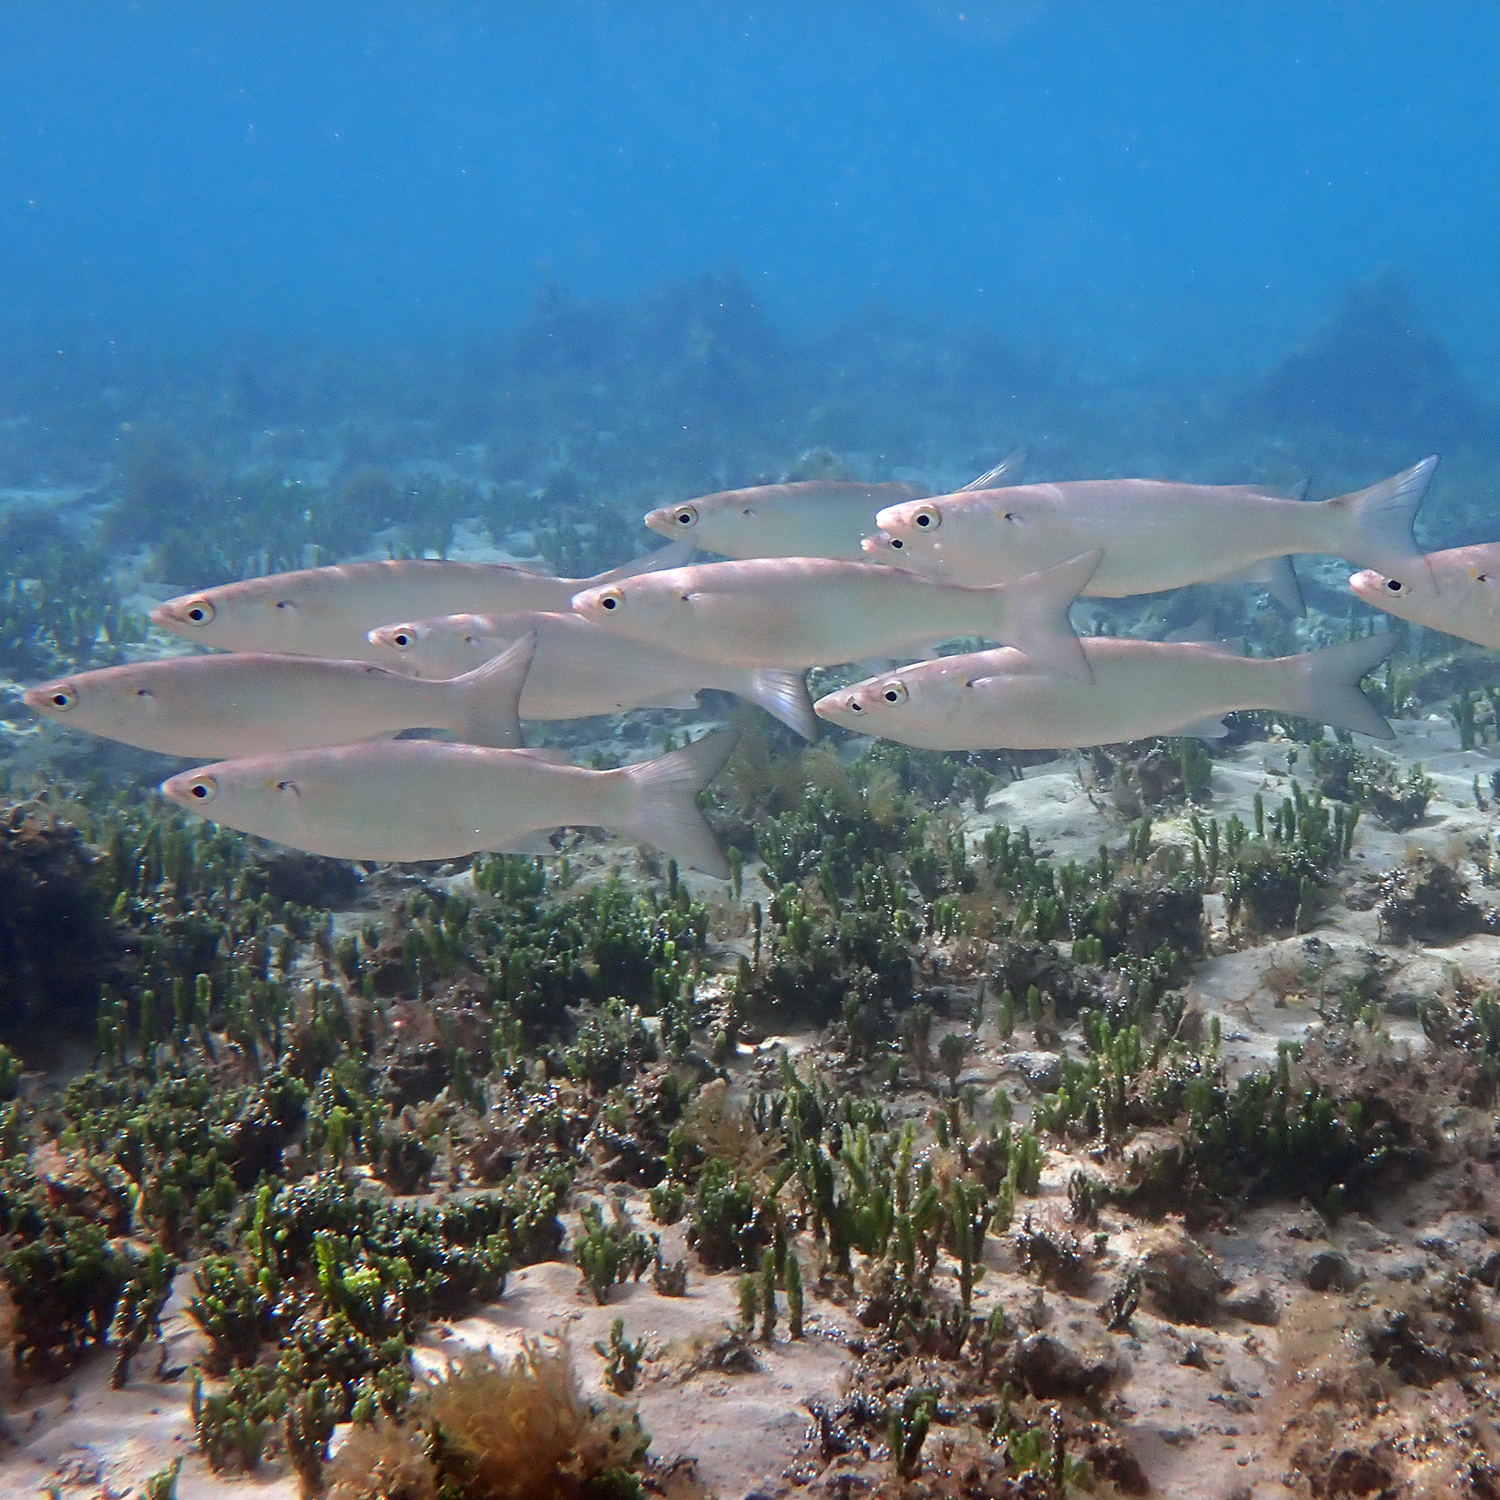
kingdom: Animalia
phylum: Chordata
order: Mugiliformes
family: Mugilidae
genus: Myxus
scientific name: Myxus elongatus
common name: Sand grey mullet
